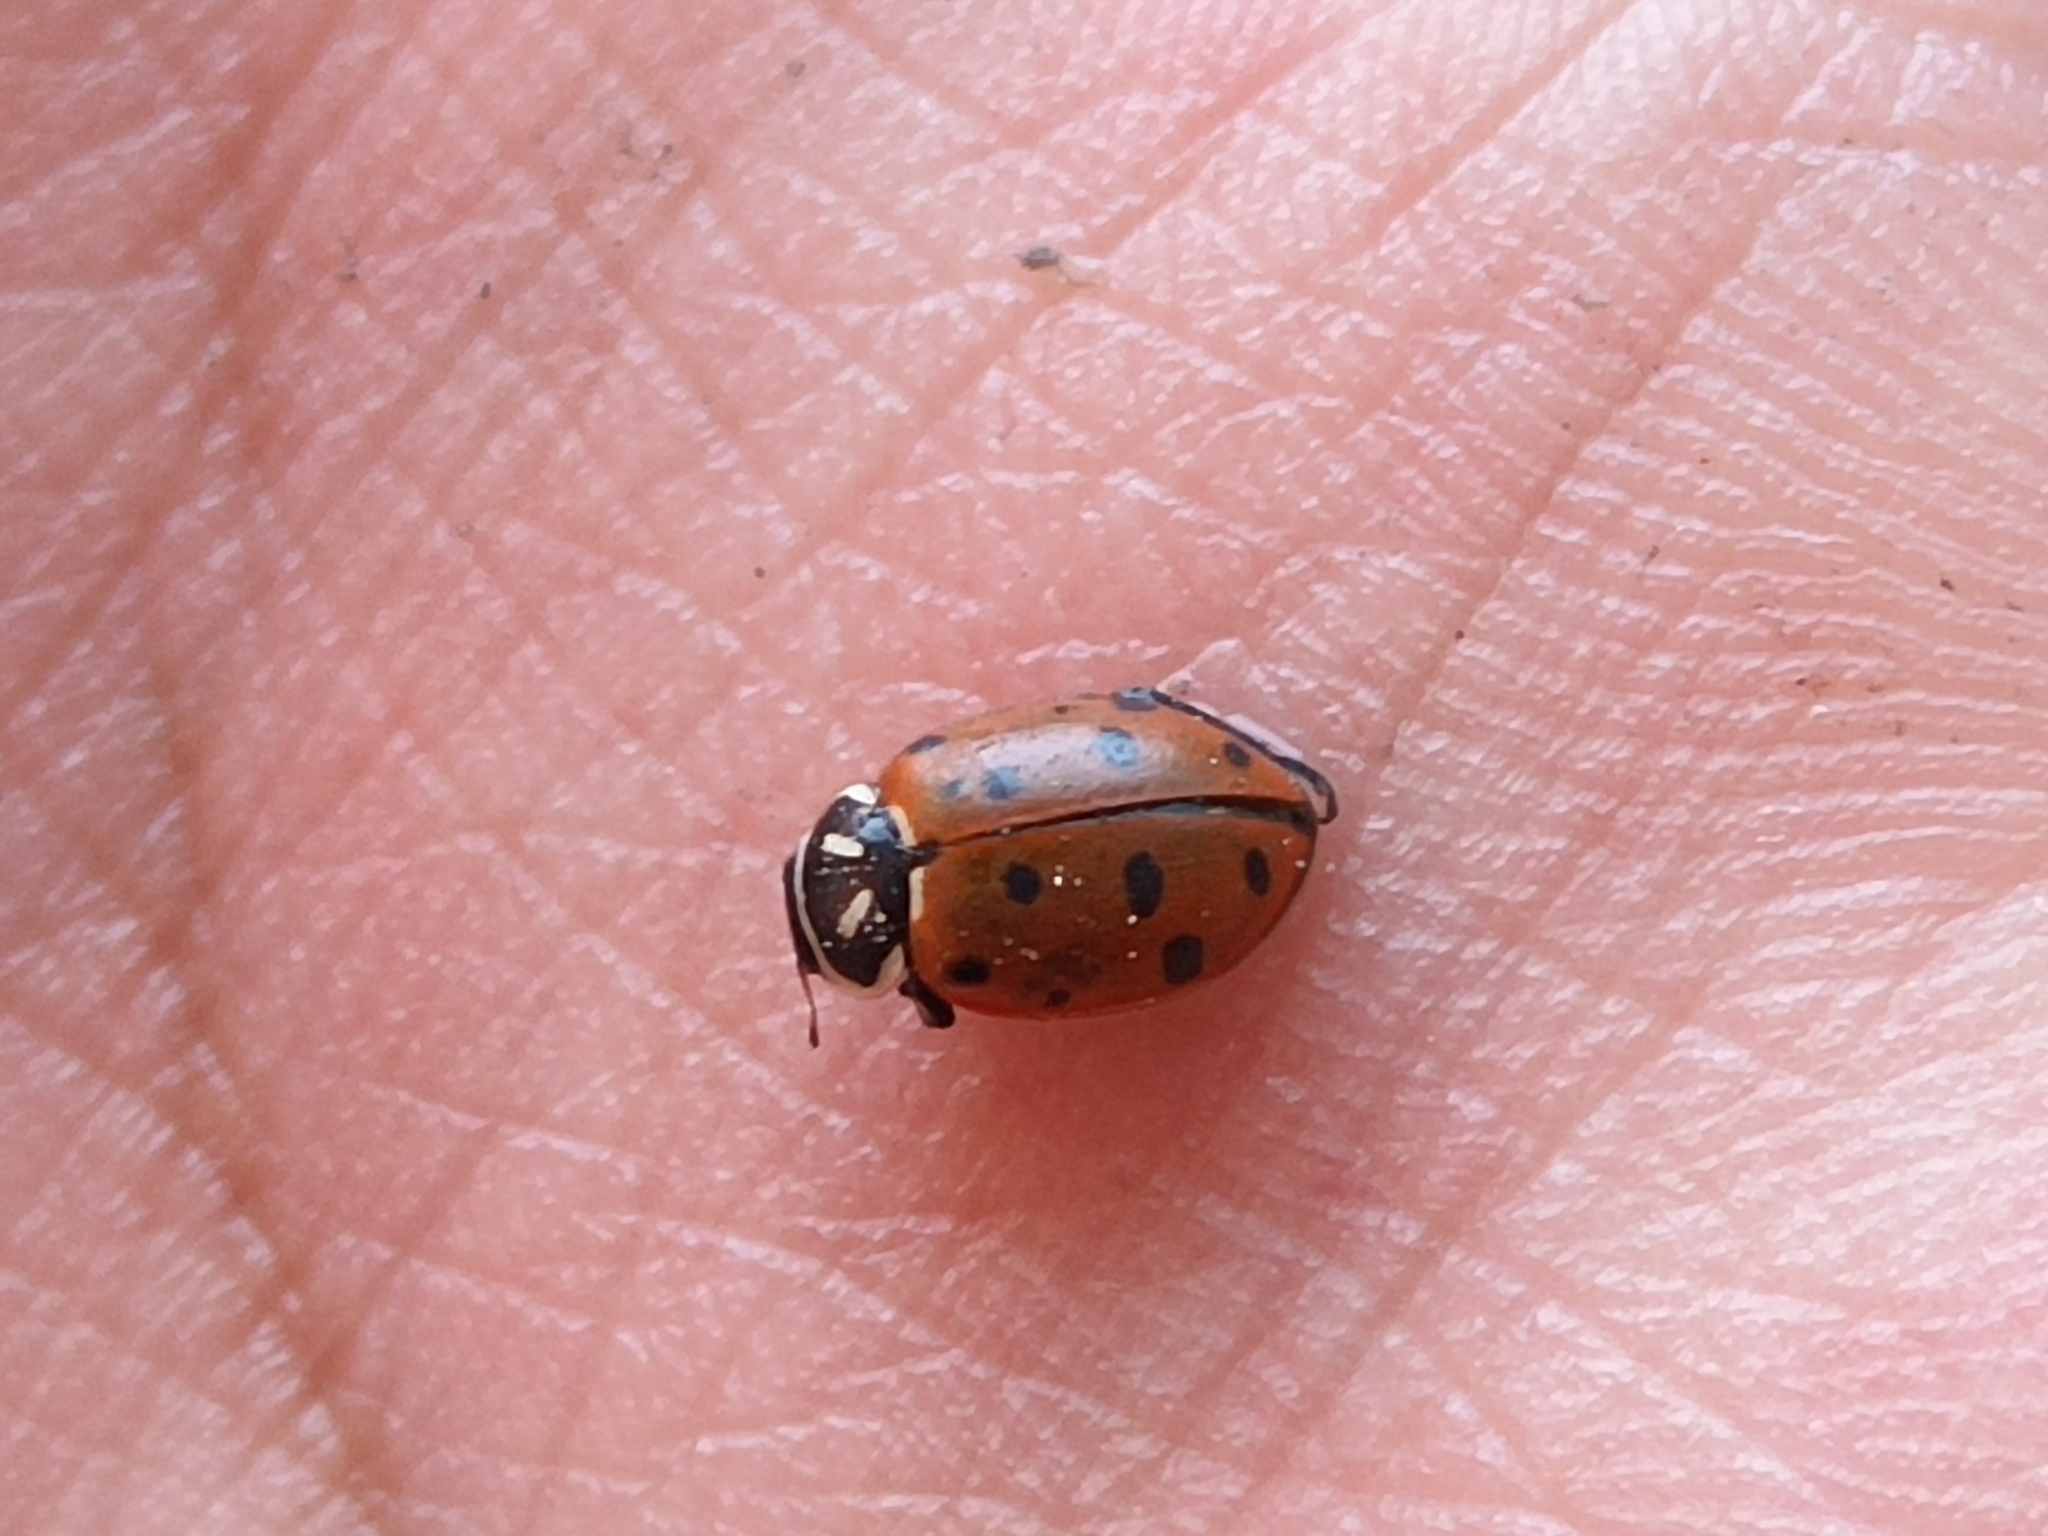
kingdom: Animalia
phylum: Arthropoda
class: Insecta
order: Coleoptera
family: Coccinellidae
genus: Hippodamia
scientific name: Hippodamia convergens
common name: Convergent lady beetle
